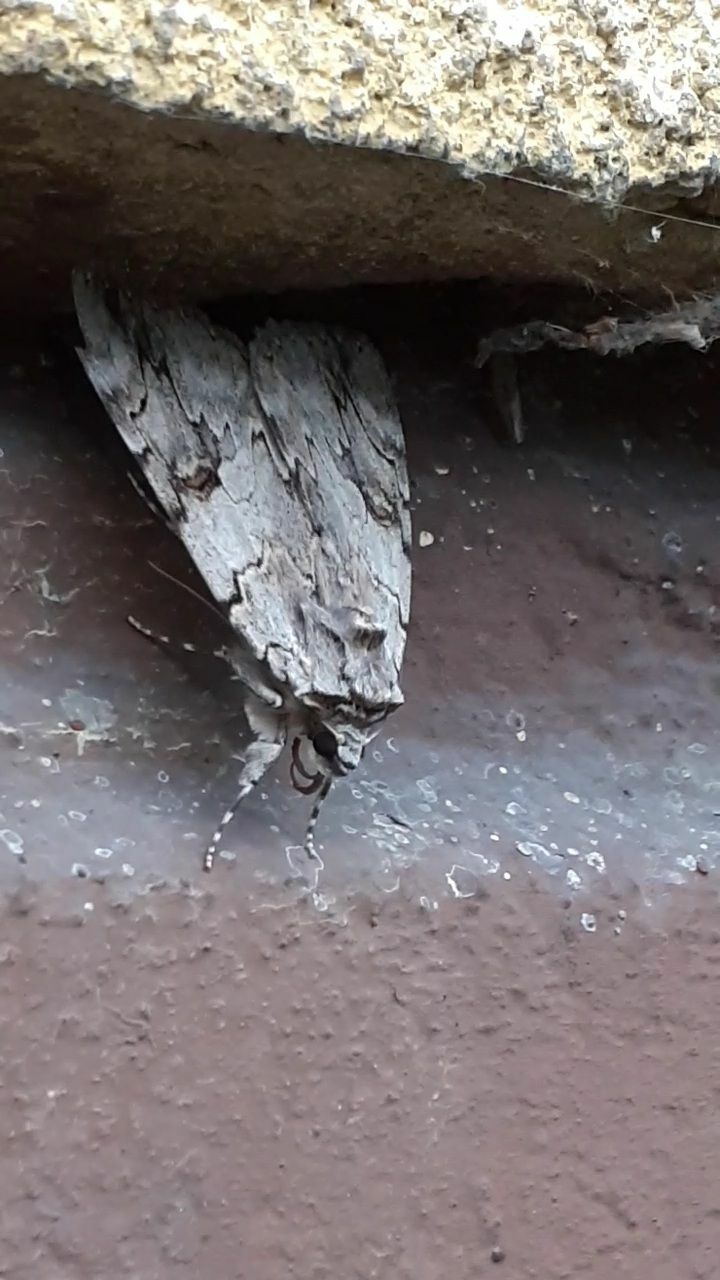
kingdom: Animalia
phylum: Arthropoda
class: Insecta
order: Lepidoptera
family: Erebidae
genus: Catocala
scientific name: Catocala electa
